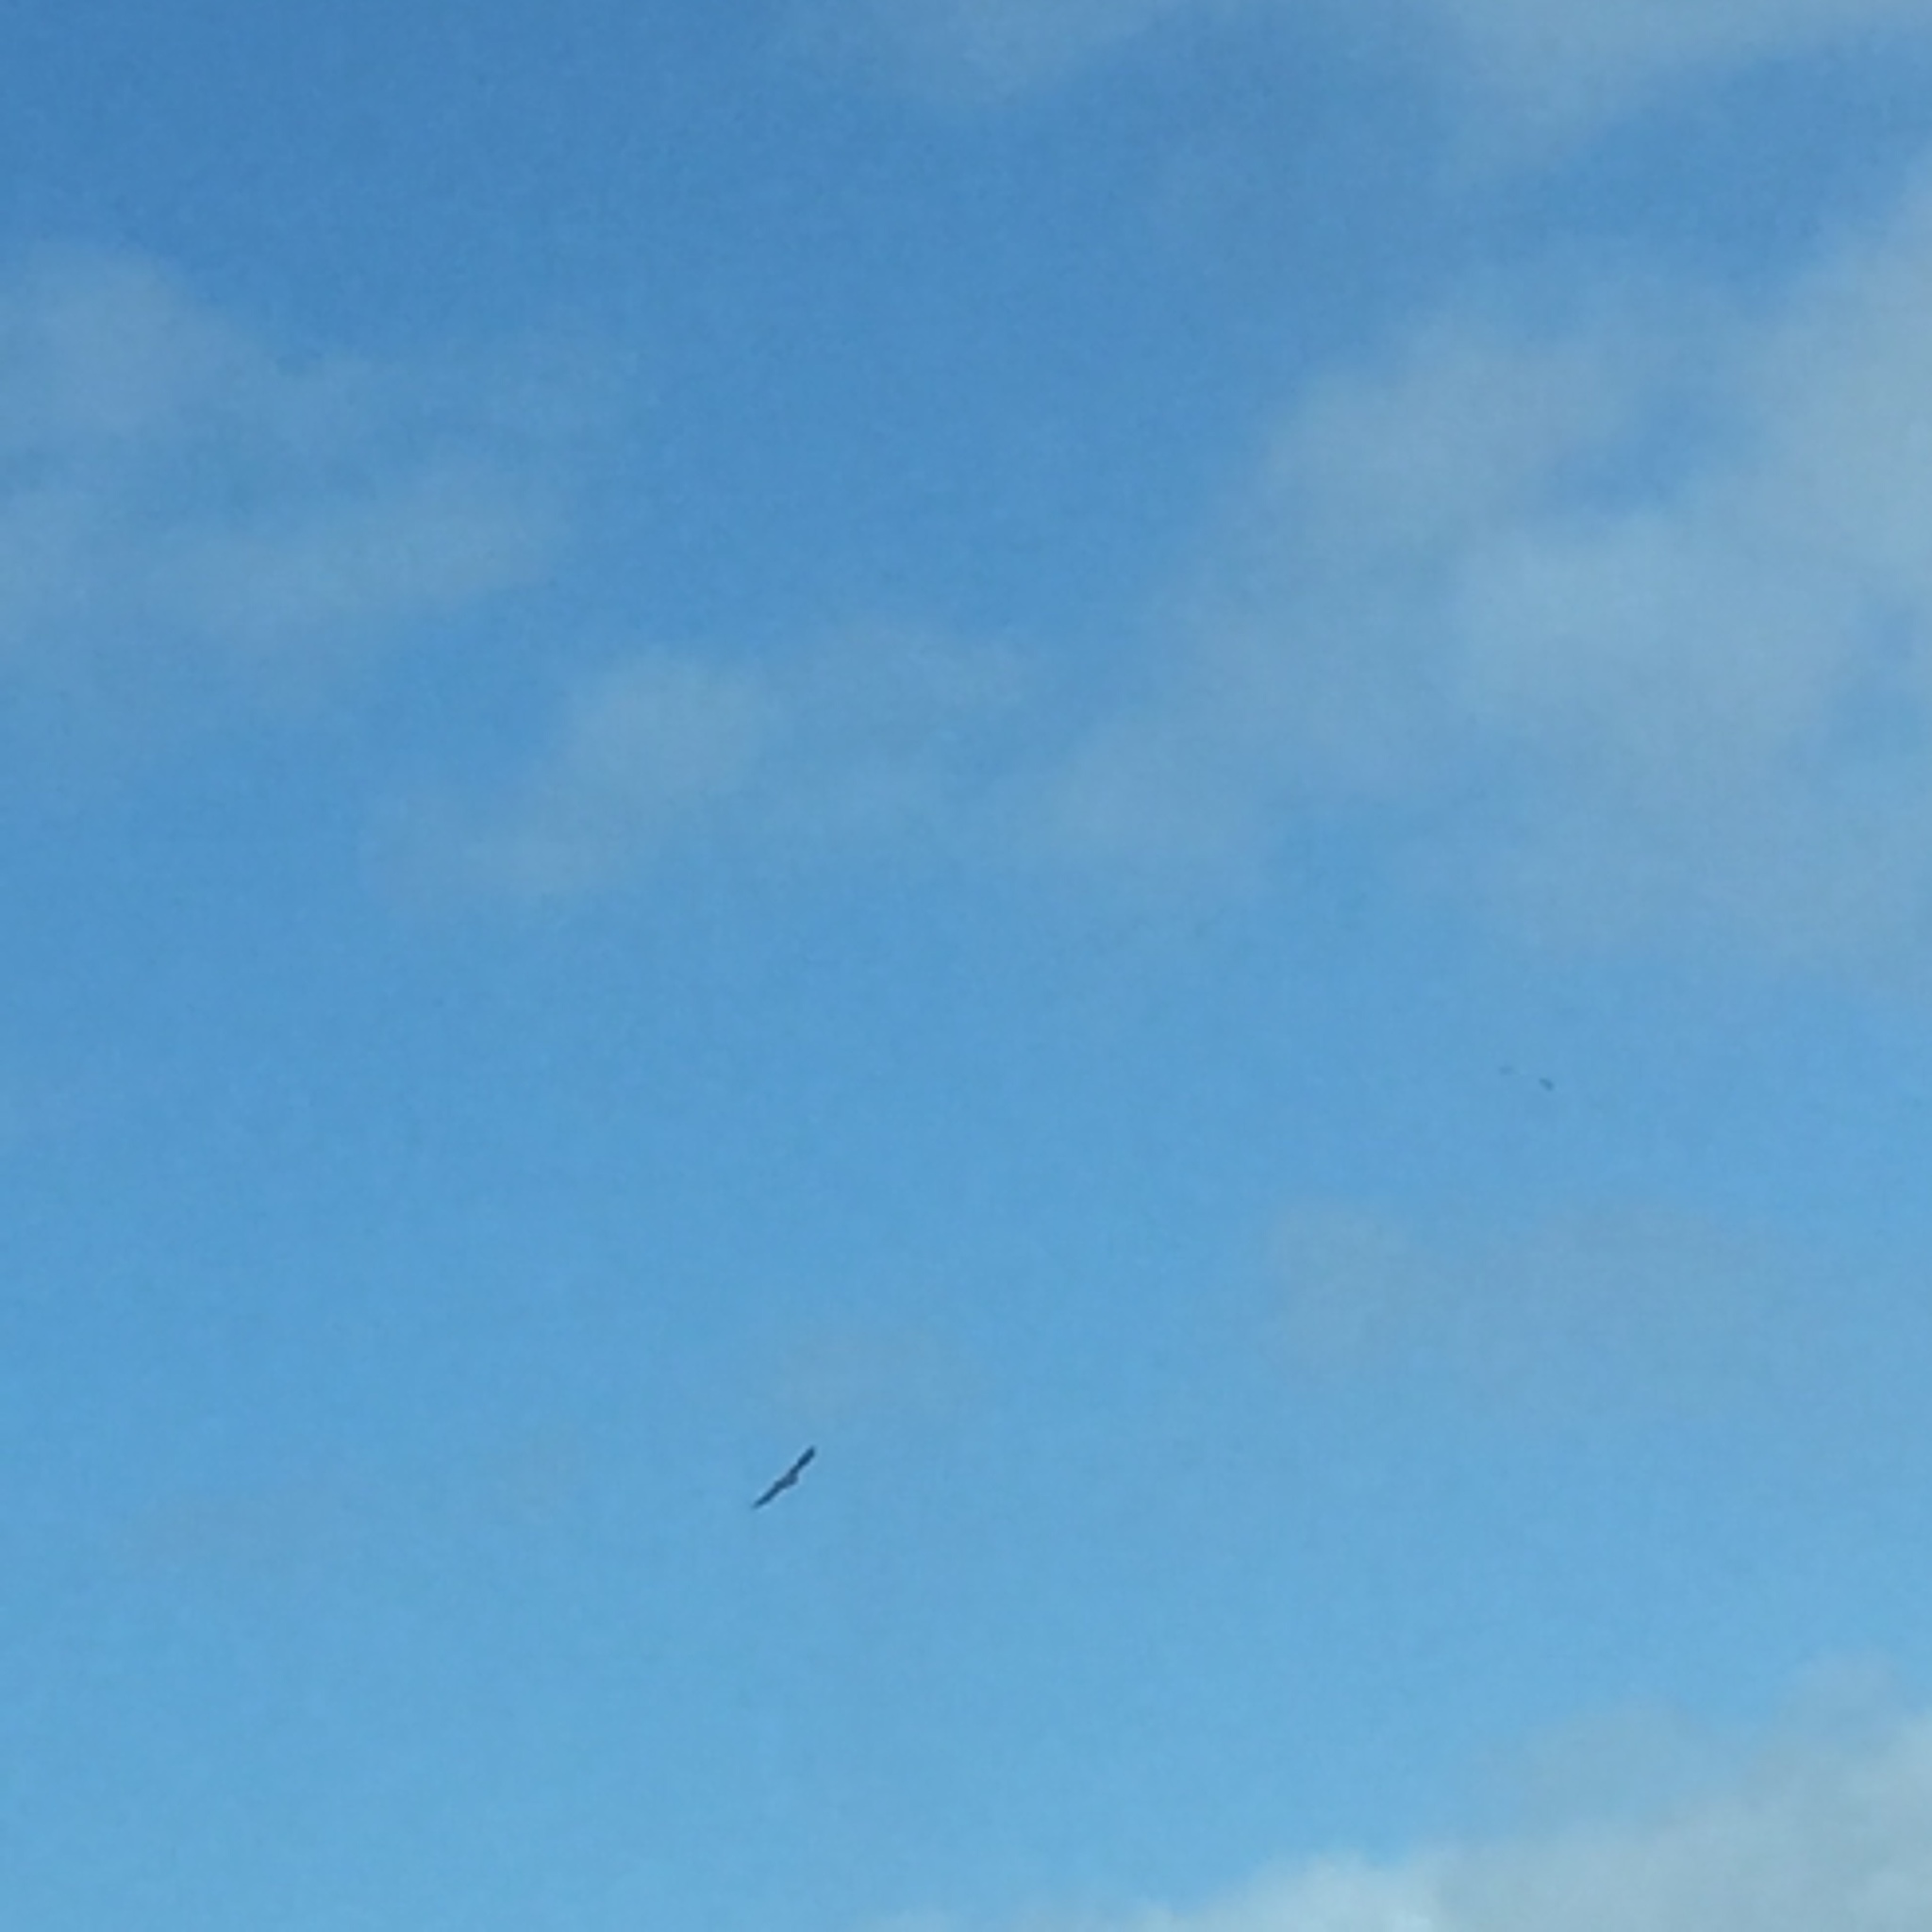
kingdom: Animalia
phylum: Chordata
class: Aves
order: Accipitriformes
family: Accipitridae
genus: Neophron
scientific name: Neophron percnopterus
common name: Egyptian vulture
